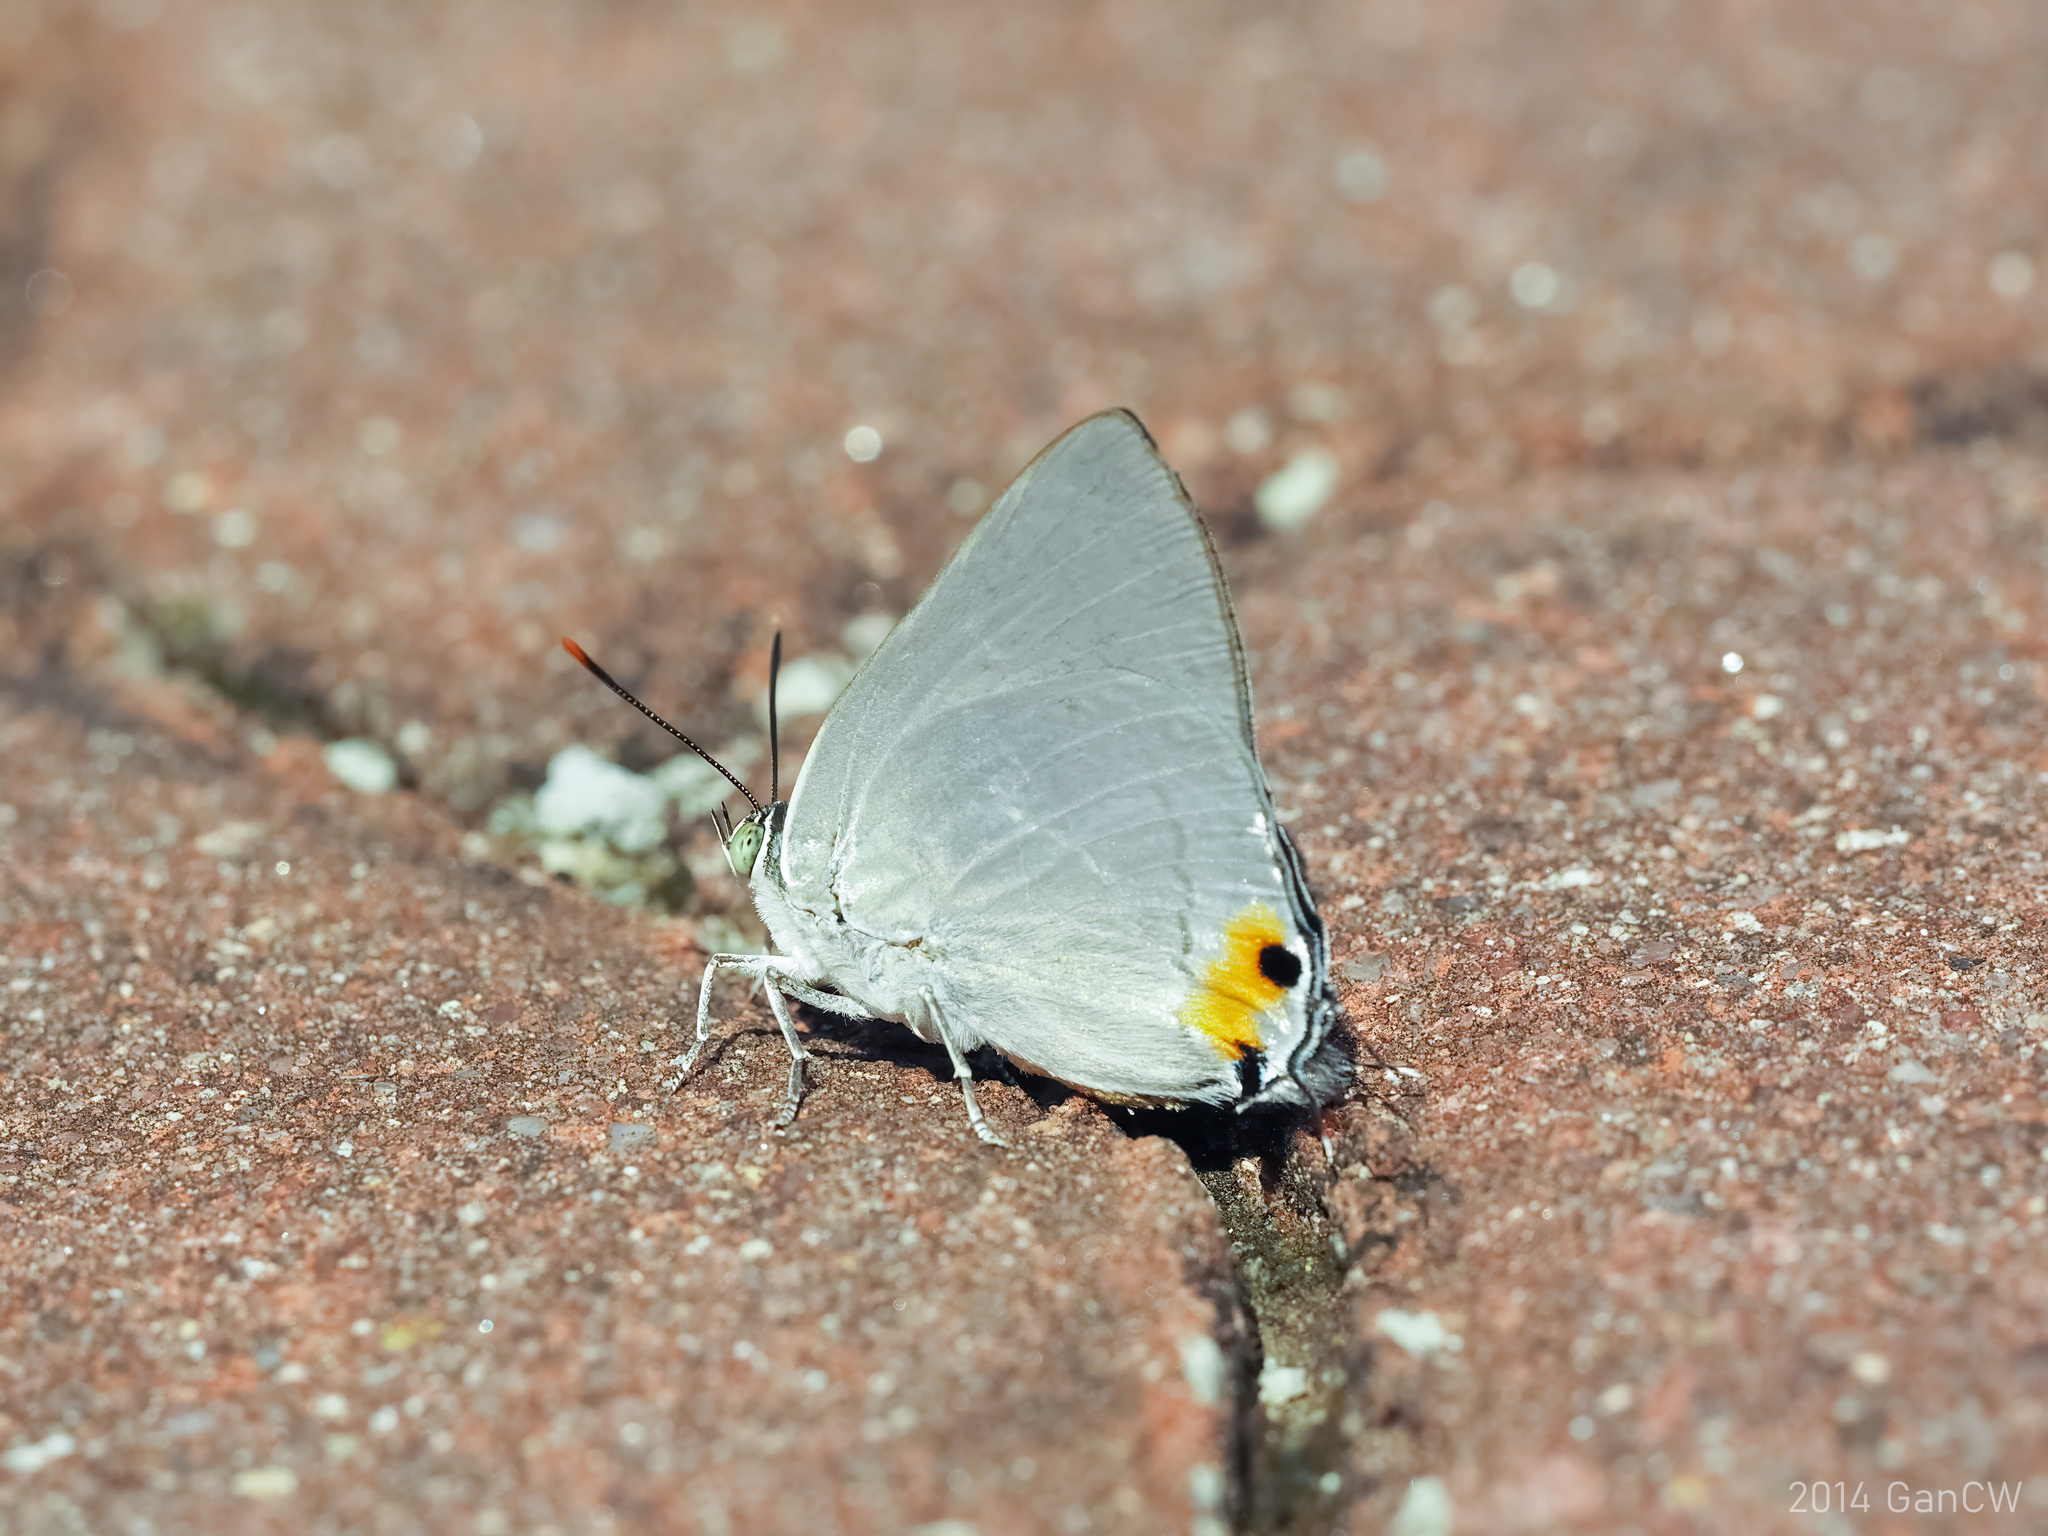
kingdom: Animalia
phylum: Arthropoda
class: Insecta
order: Lepidoptera
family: Lycaenidae
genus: Ancema
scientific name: Ancema blanka
